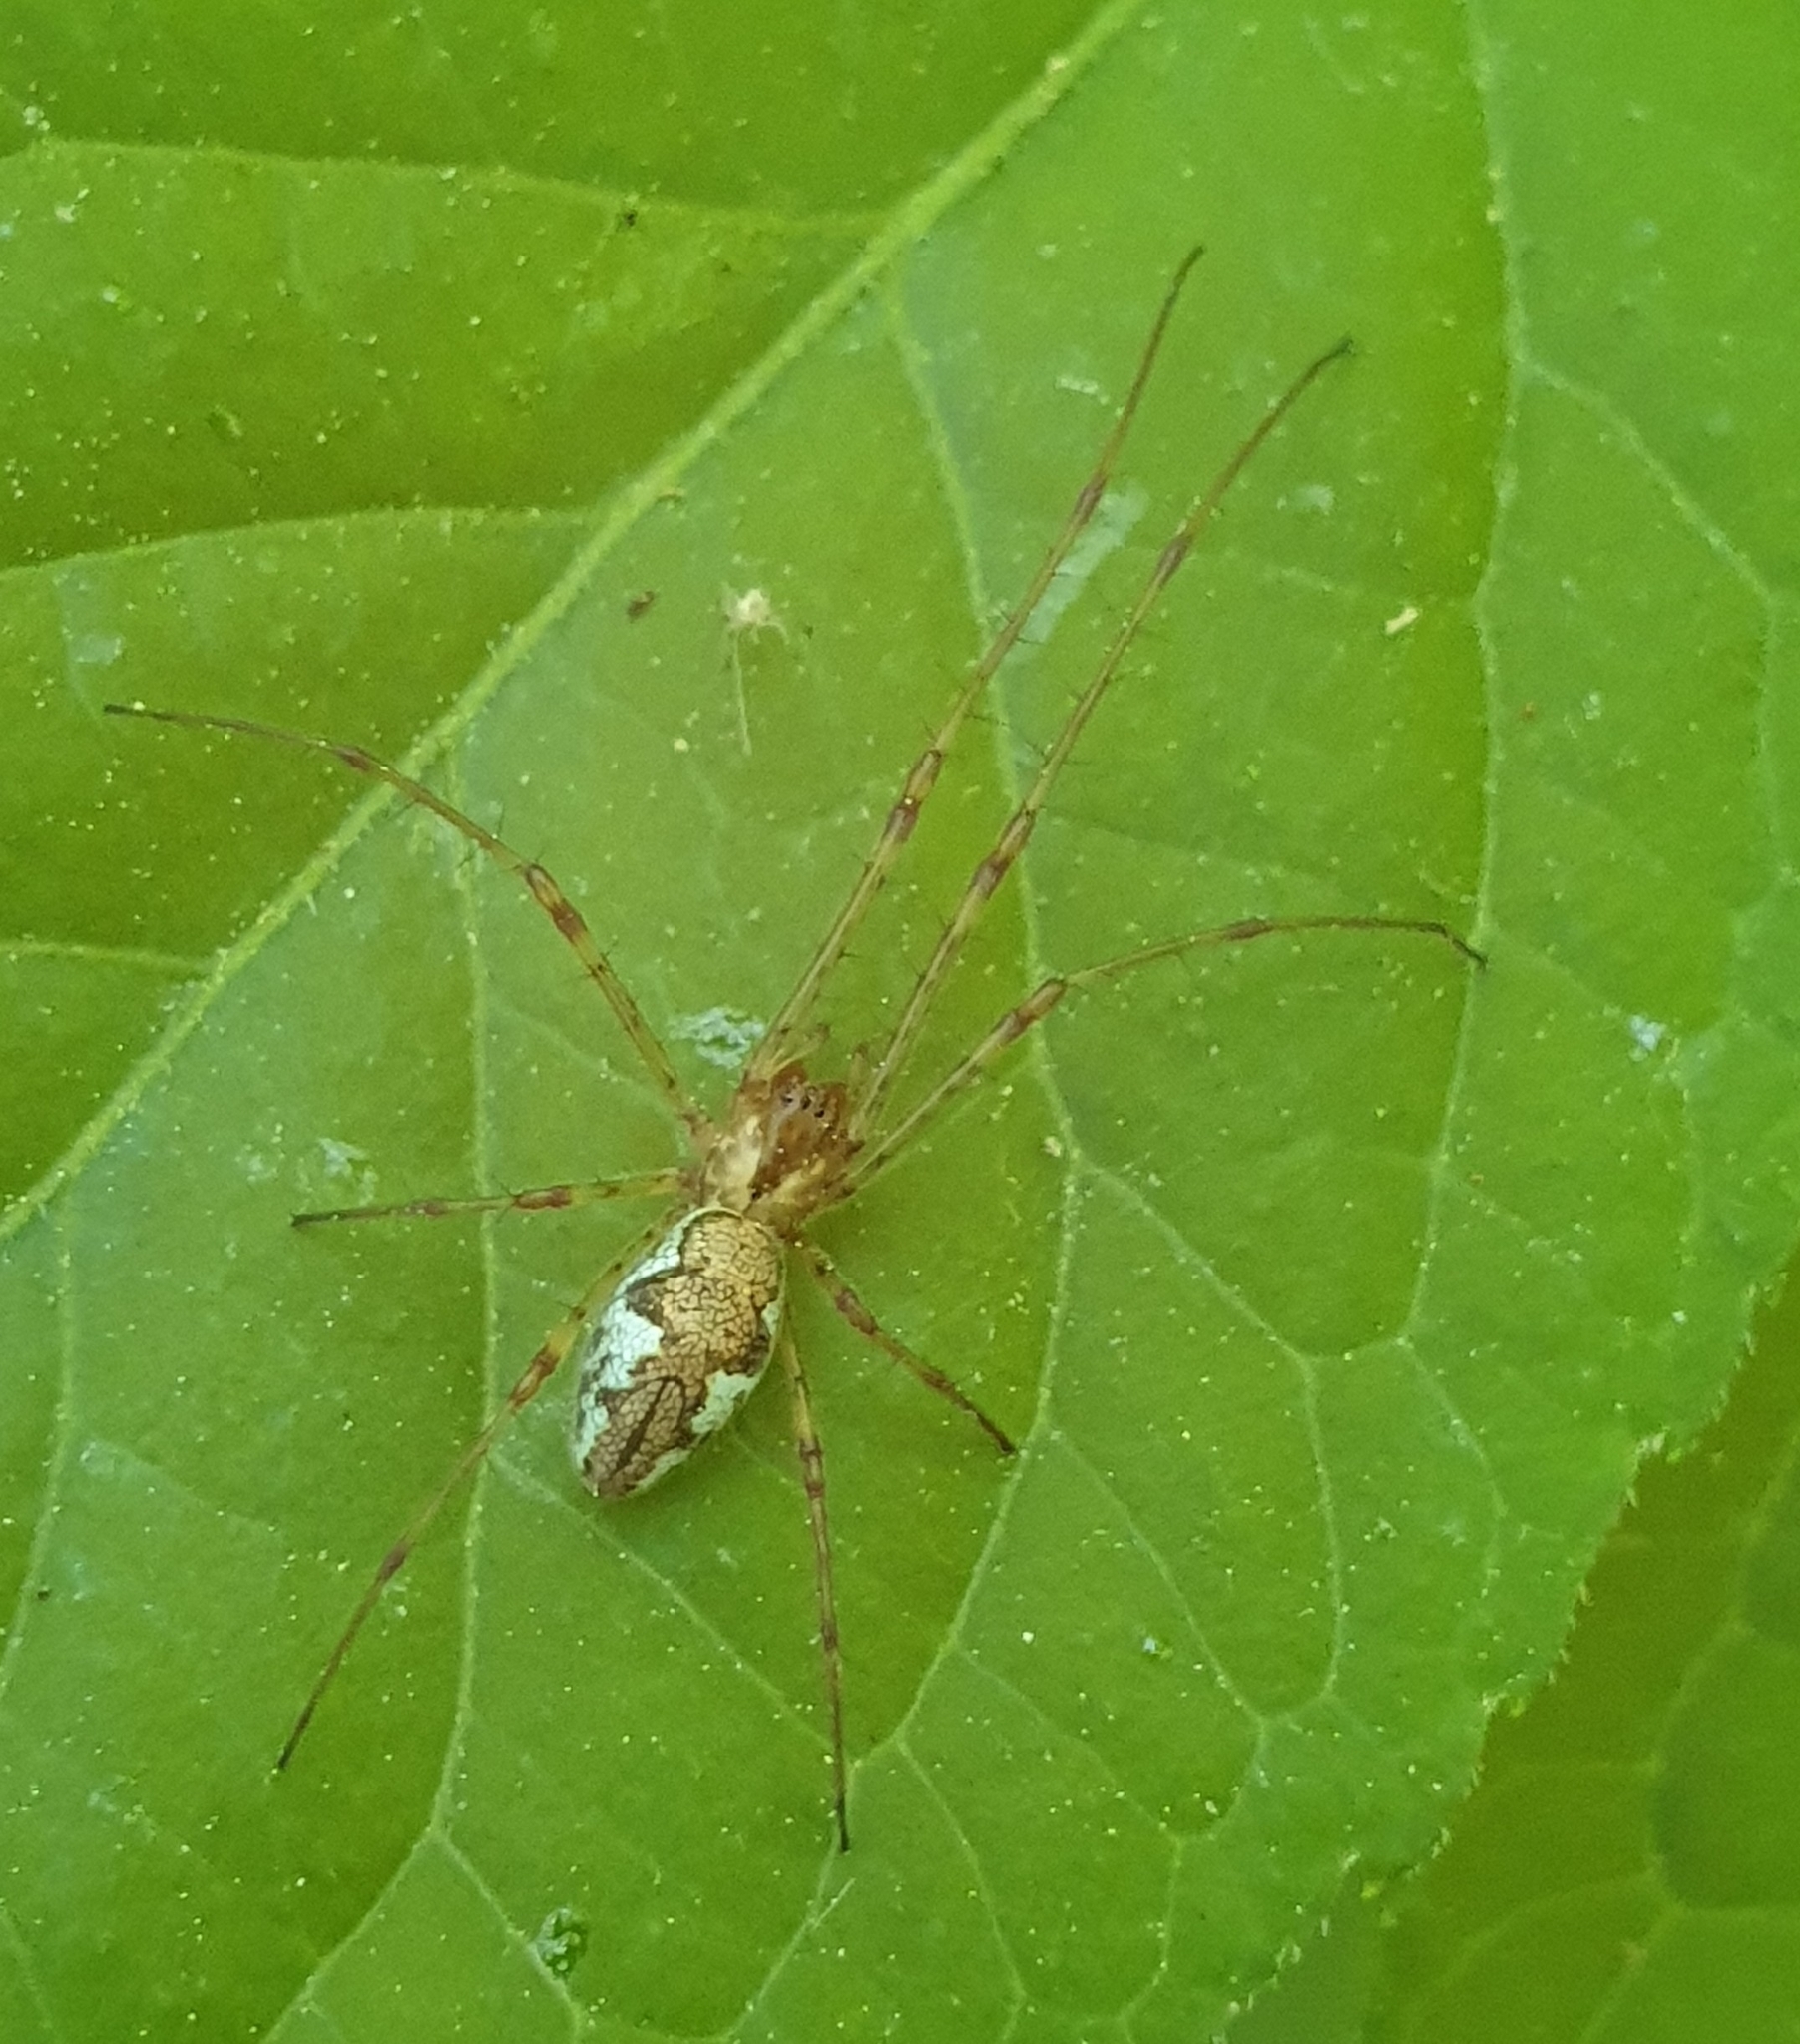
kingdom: Animalia
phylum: Arthropoda
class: Arachnida
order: Araneae
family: Tetragnathidae
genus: Tetragnatha
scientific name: Tetragnatha obtusa
